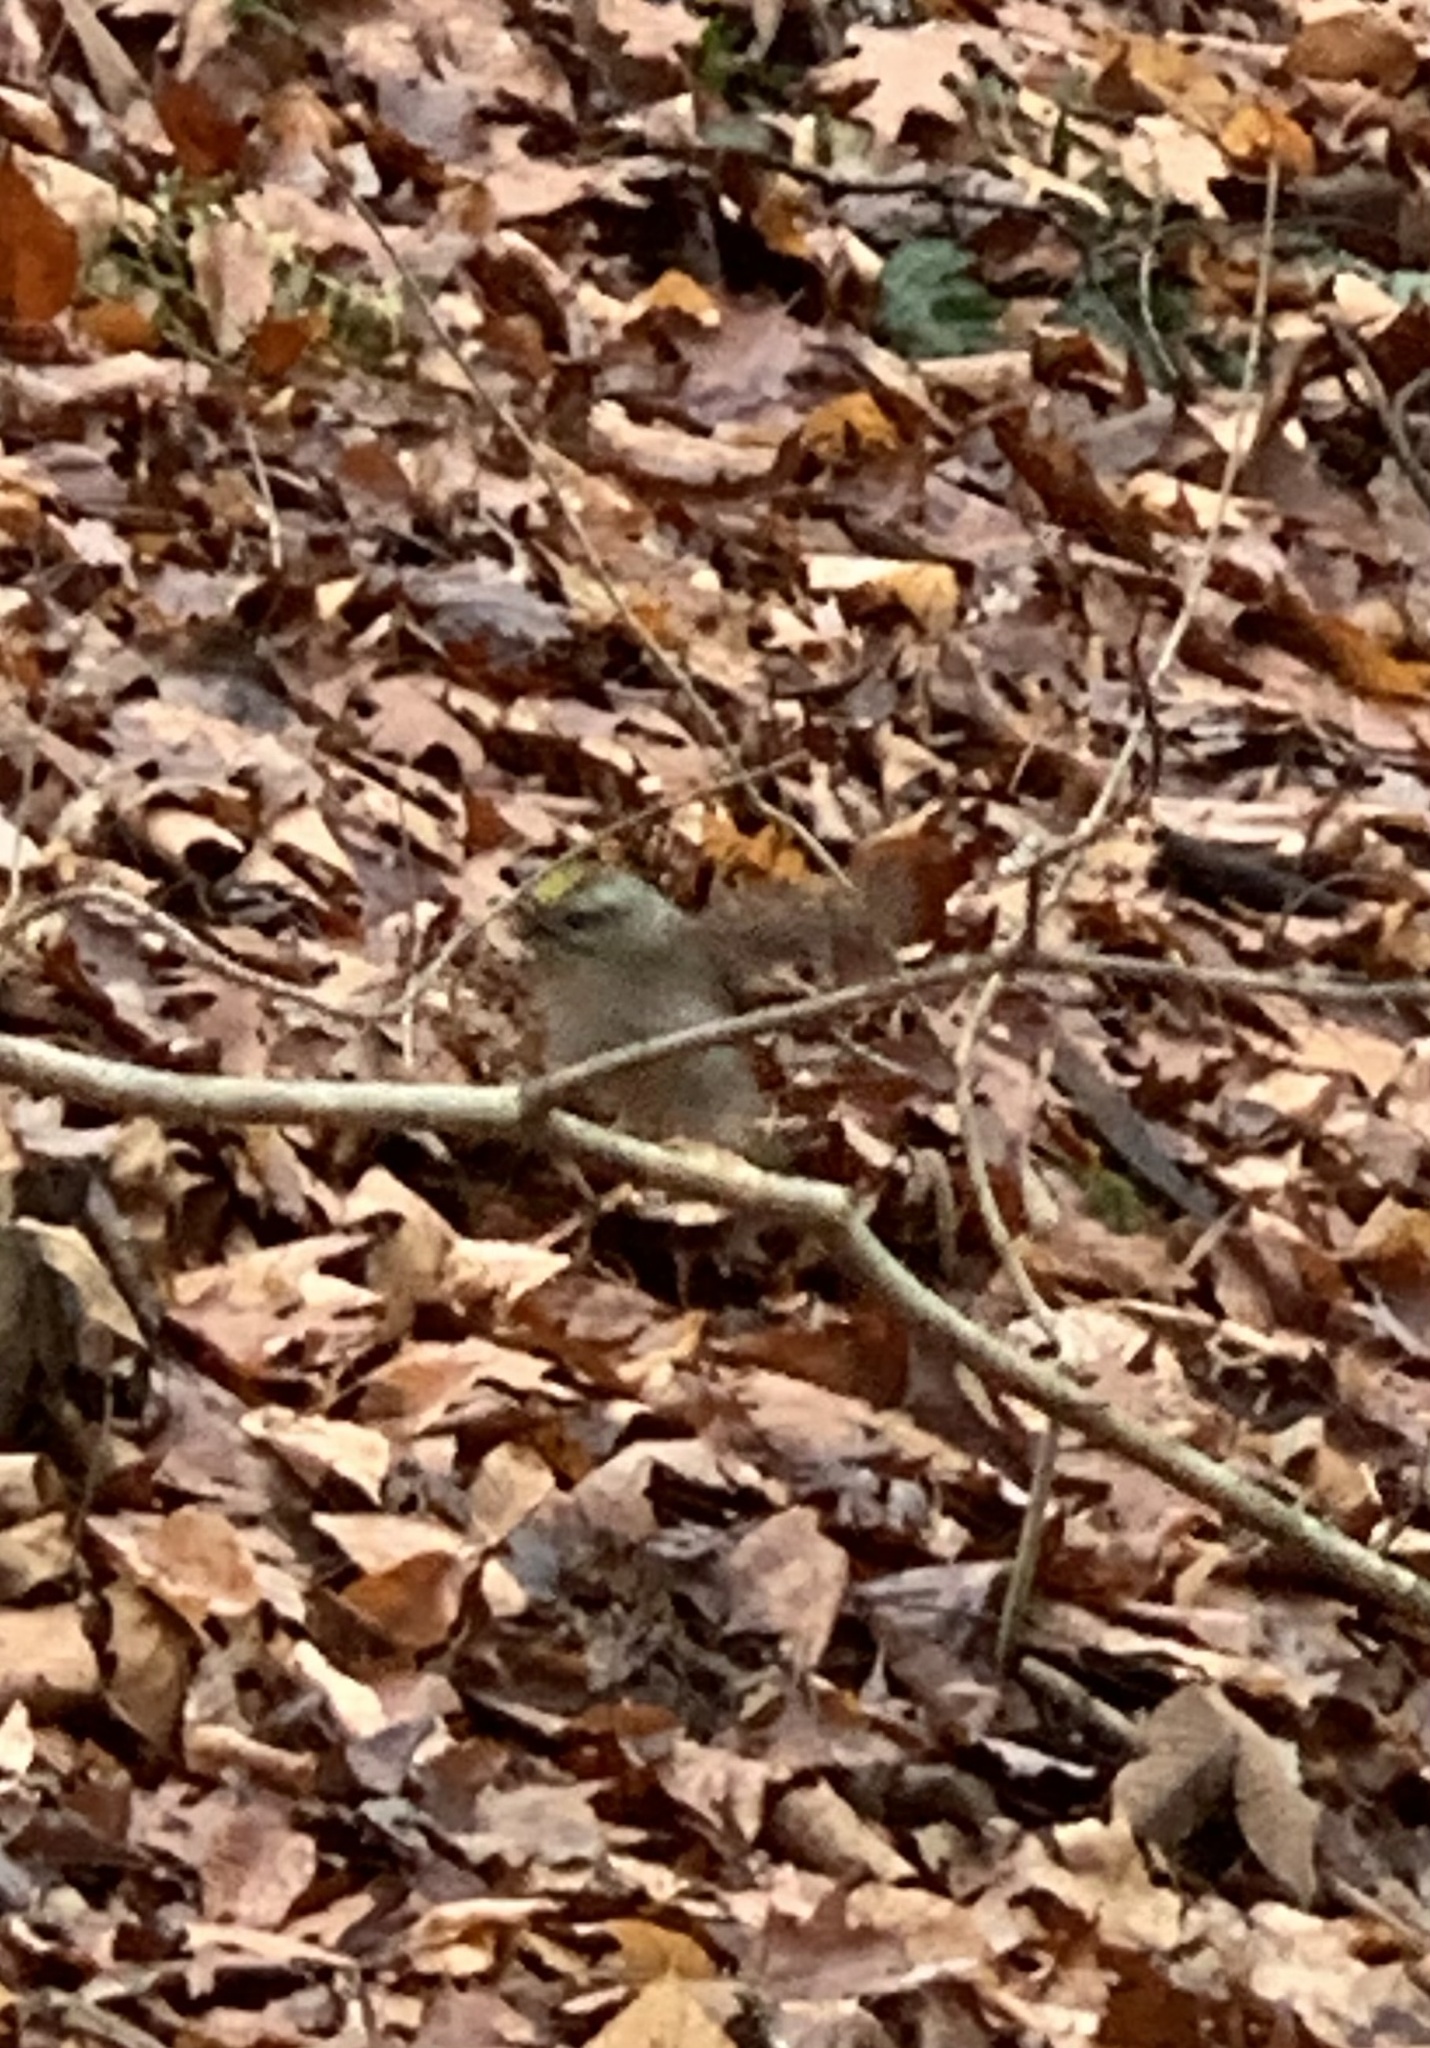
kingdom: Animalia
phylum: Chordata
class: Aves
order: Passeriformes
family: Regulidae
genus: Regulus
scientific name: Regulus satrapa
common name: Golden-crowned kinglet
